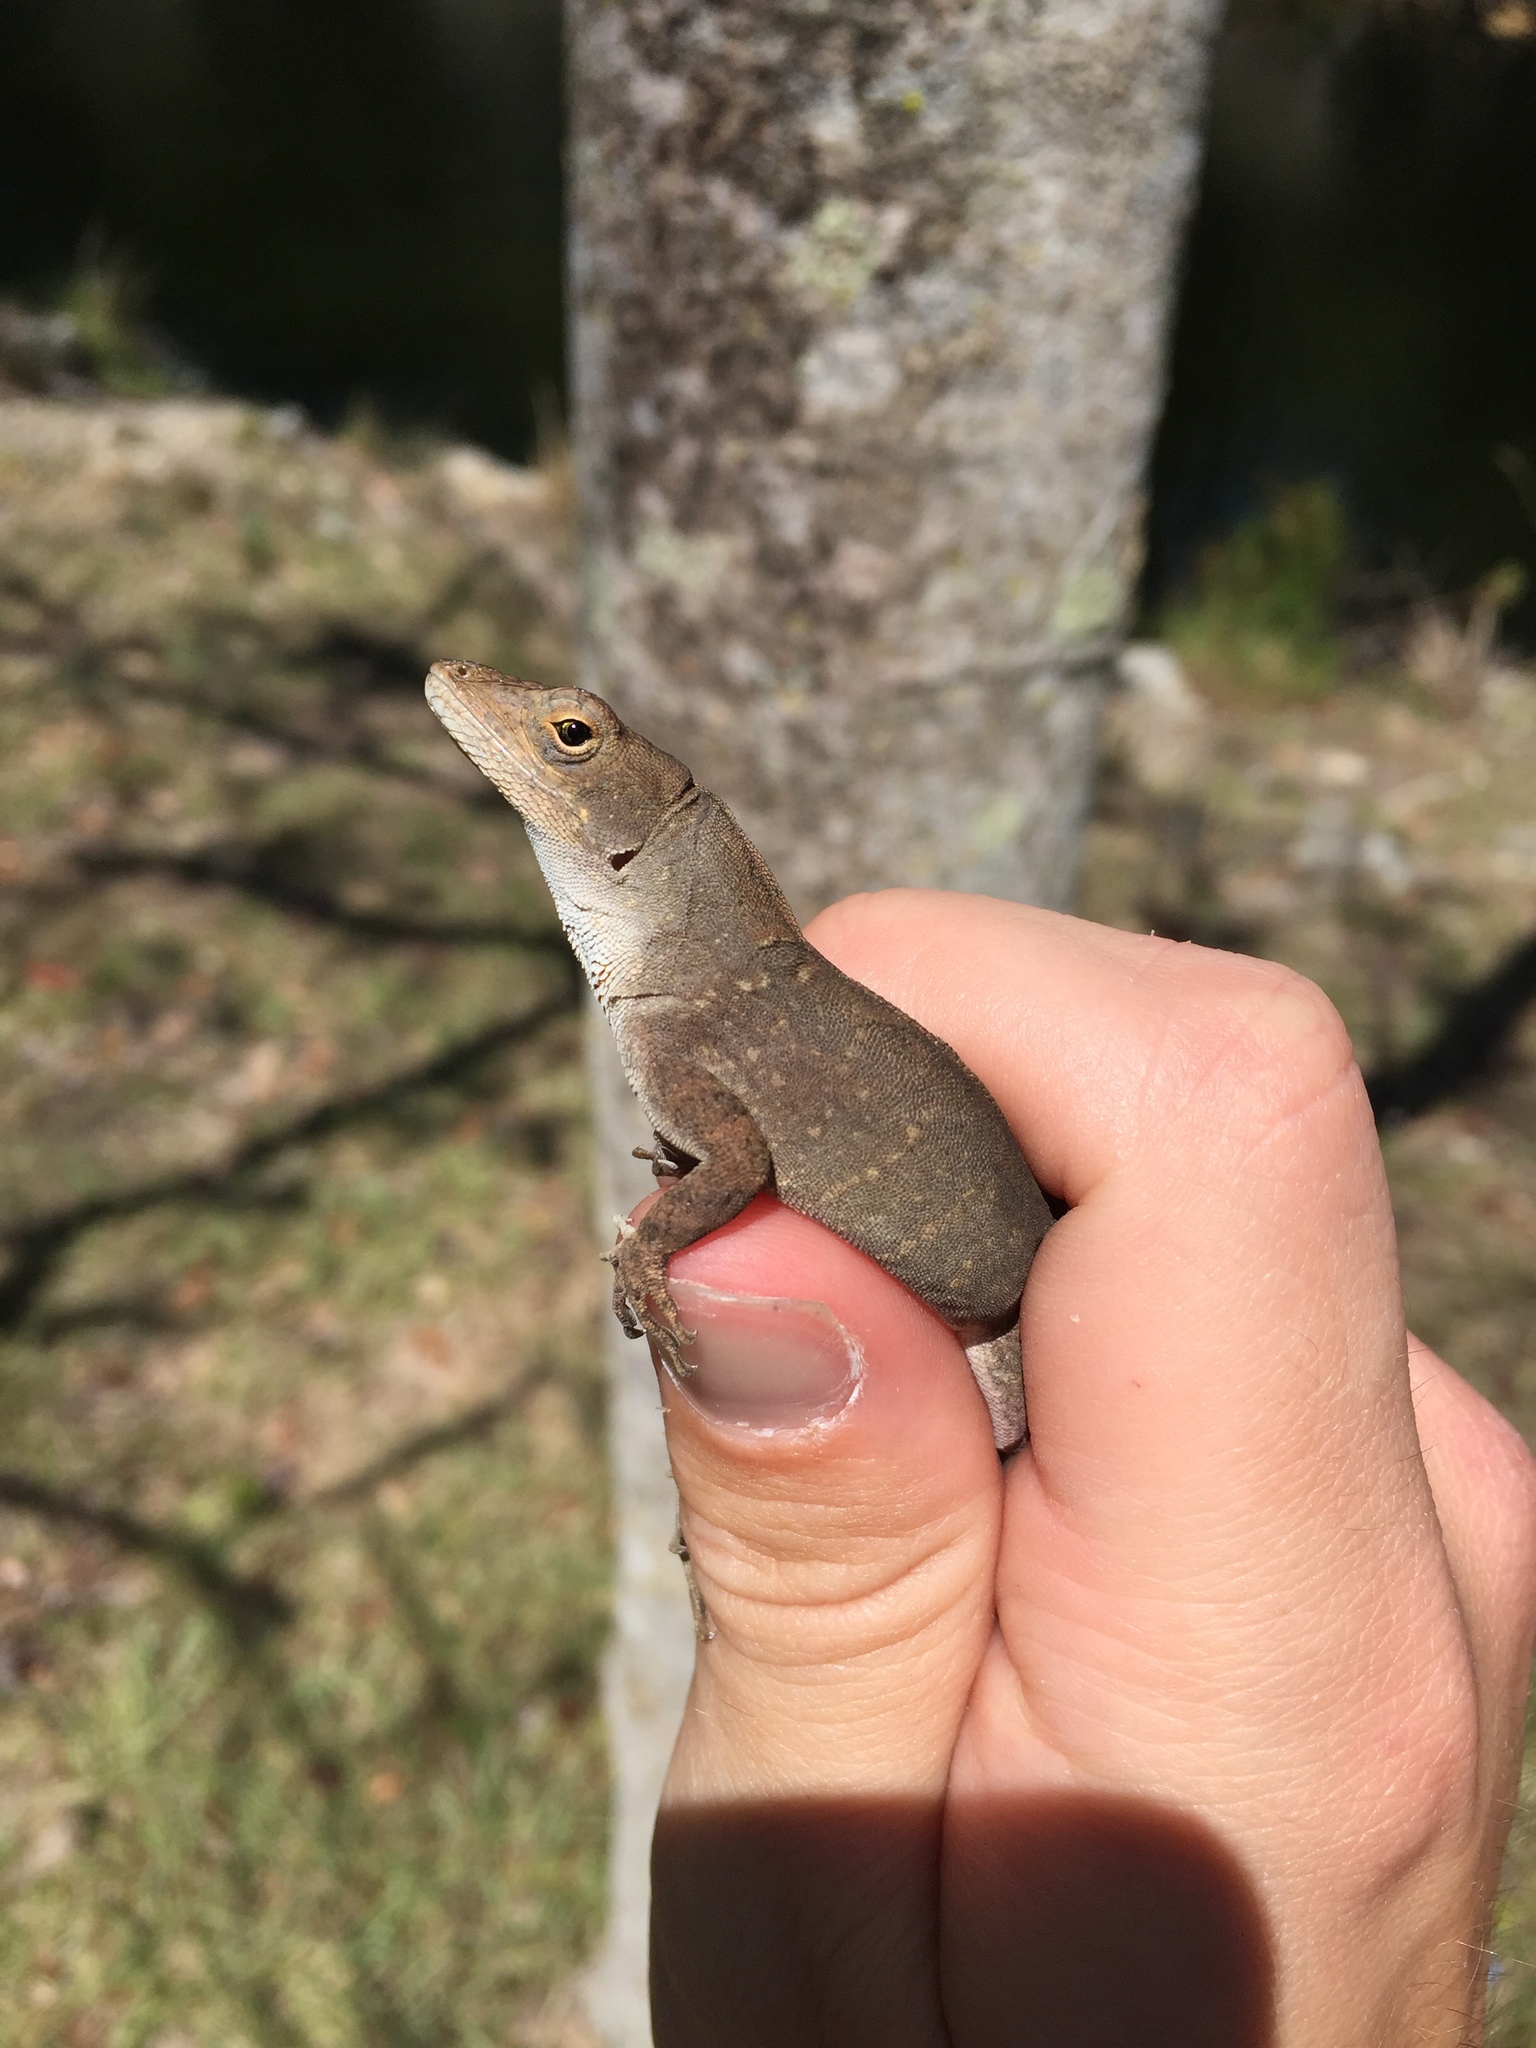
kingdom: Animalia
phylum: Chordata
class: Squamata
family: Dactyloidae
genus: Anolis
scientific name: Anolis sagrei
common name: Brown anole
